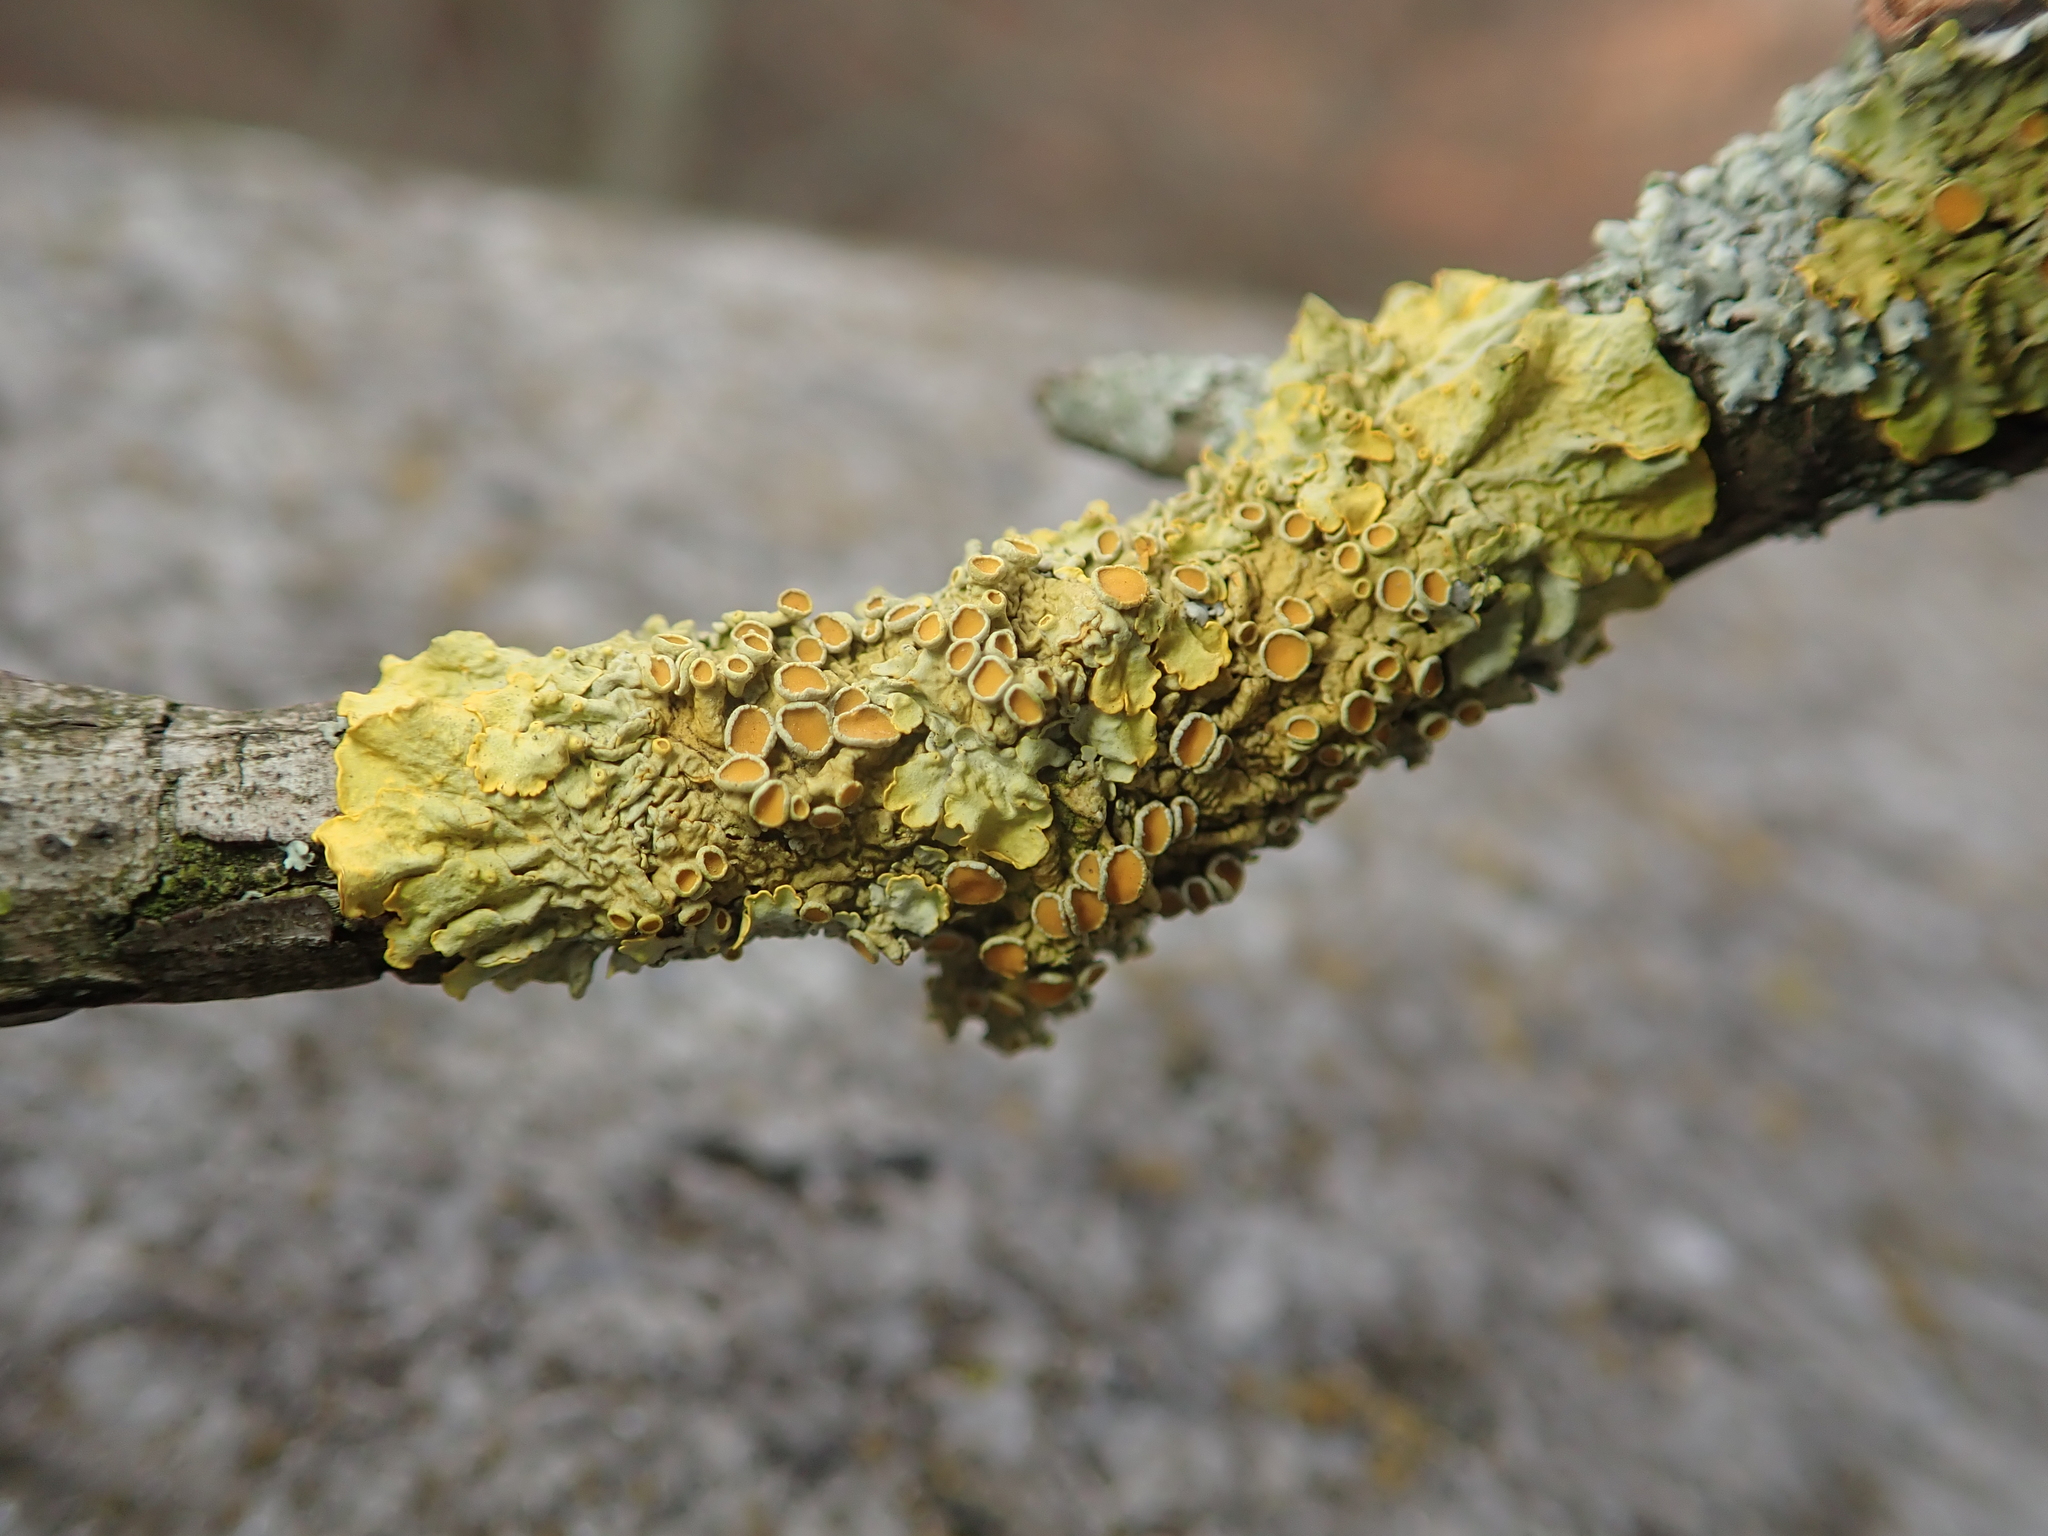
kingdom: Fungi
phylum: Ascomycota
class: Lecanoromycetes
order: Teloschistales
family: Teloschistaceae
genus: Xanthoria
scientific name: Xanthoria parietina
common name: Common orange lichen
